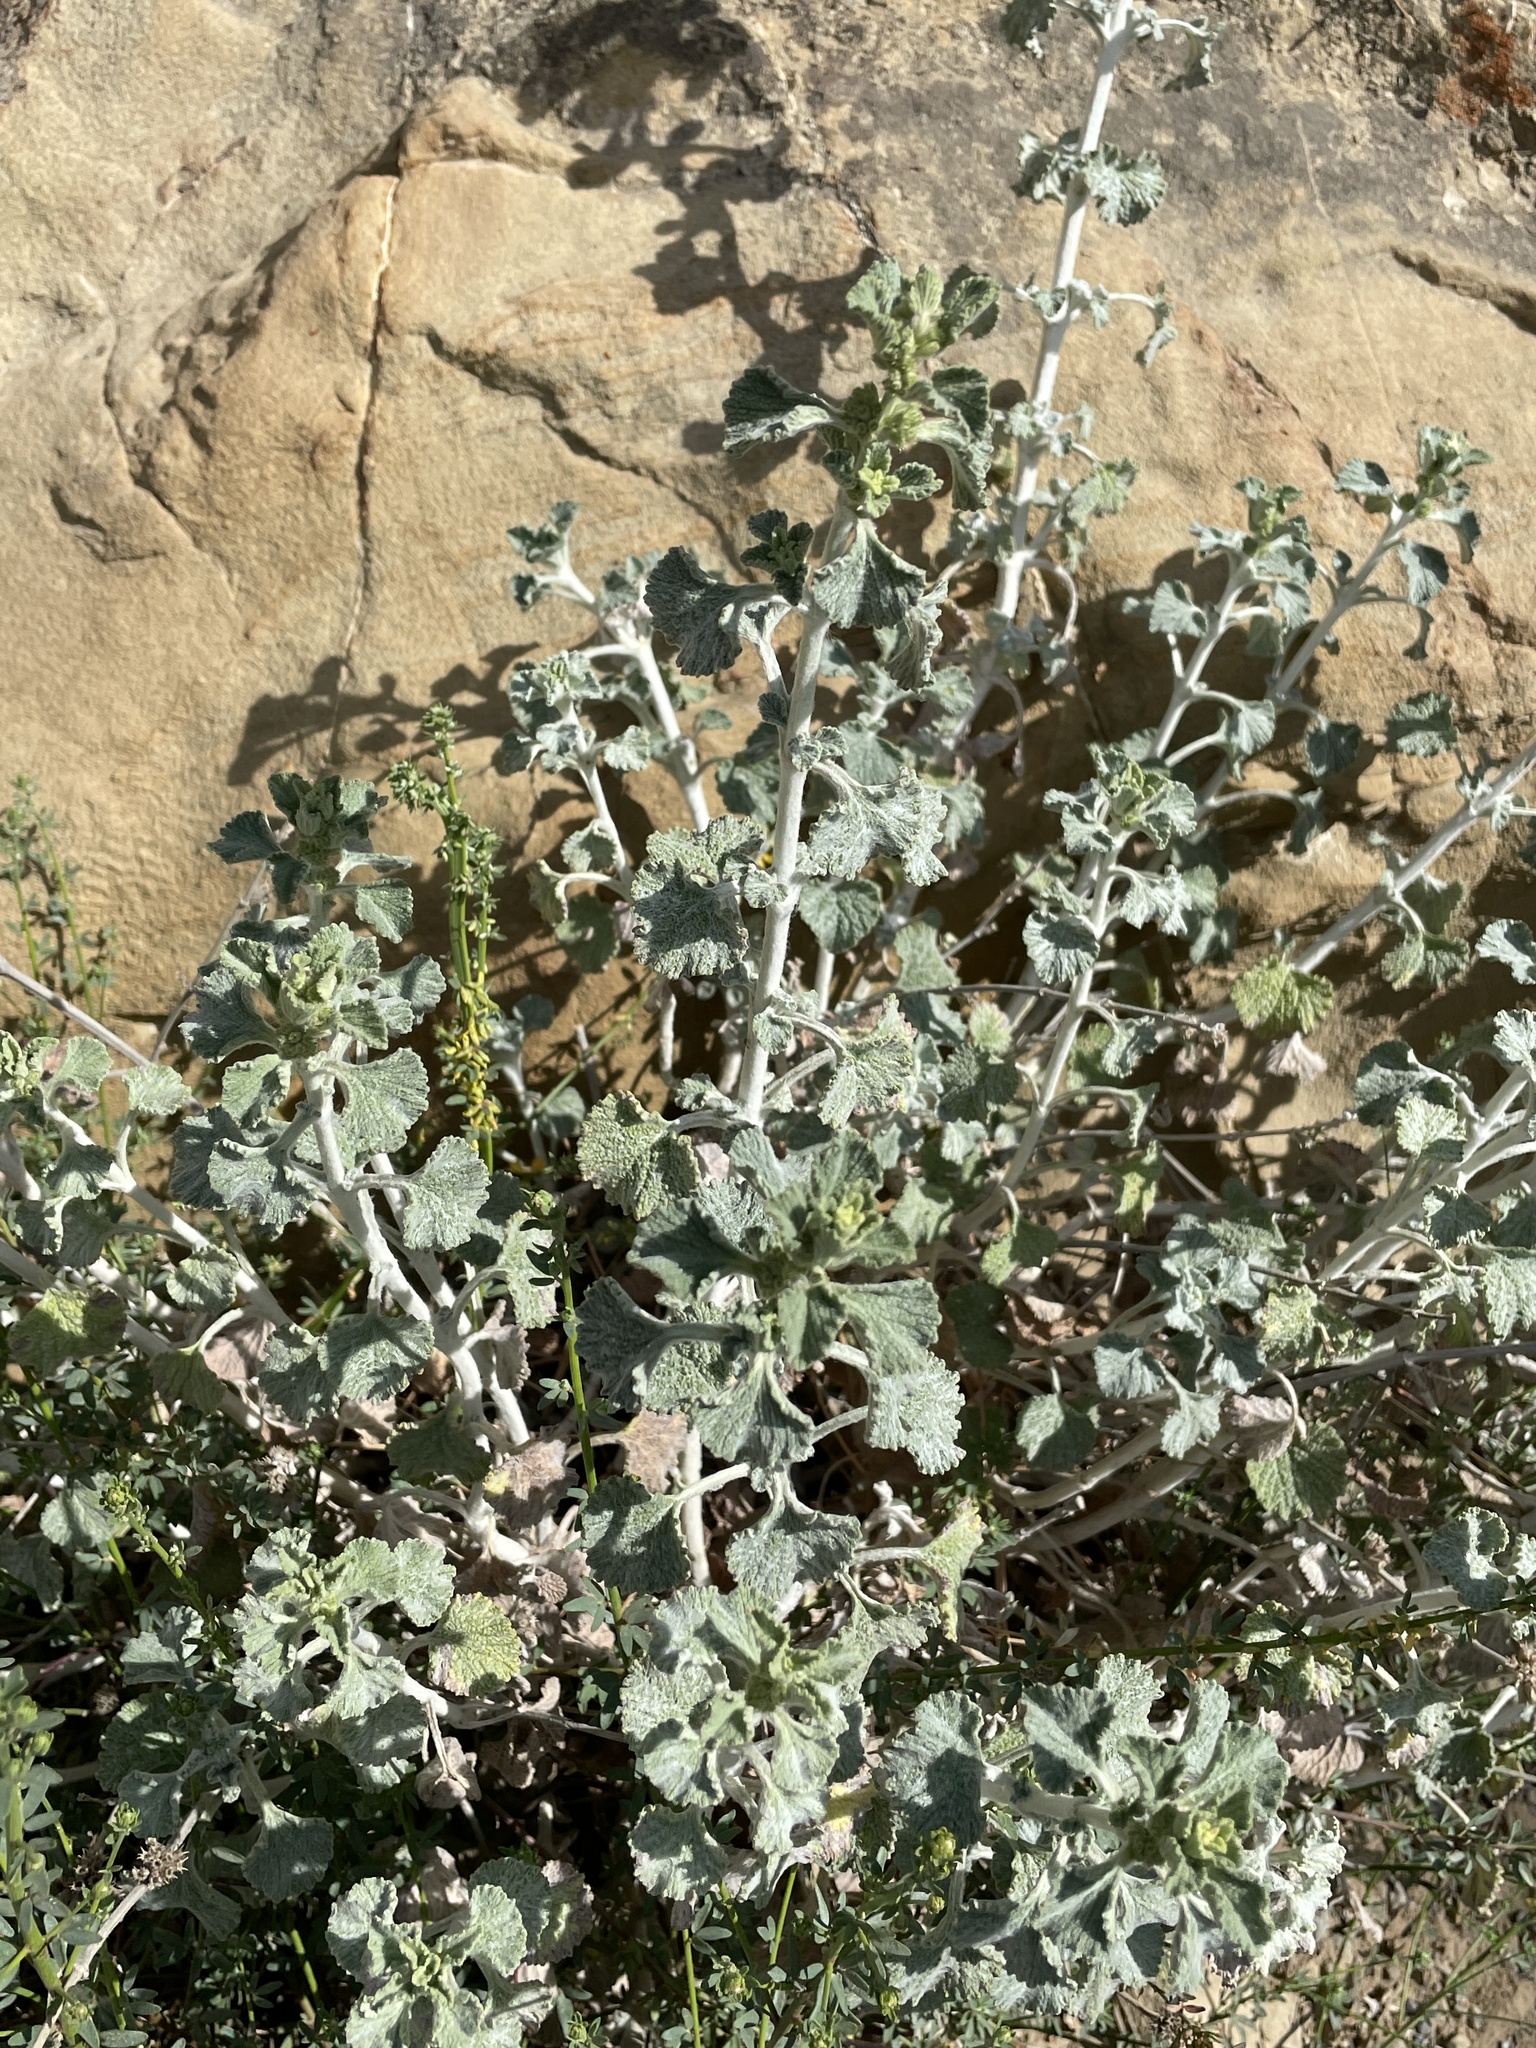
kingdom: Plantae
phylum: Tracheophyta
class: Magnoliopsida
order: Lamiales
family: Lamiaceae
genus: Marrubium
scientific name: Marrubium vulgare
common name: Horehound
